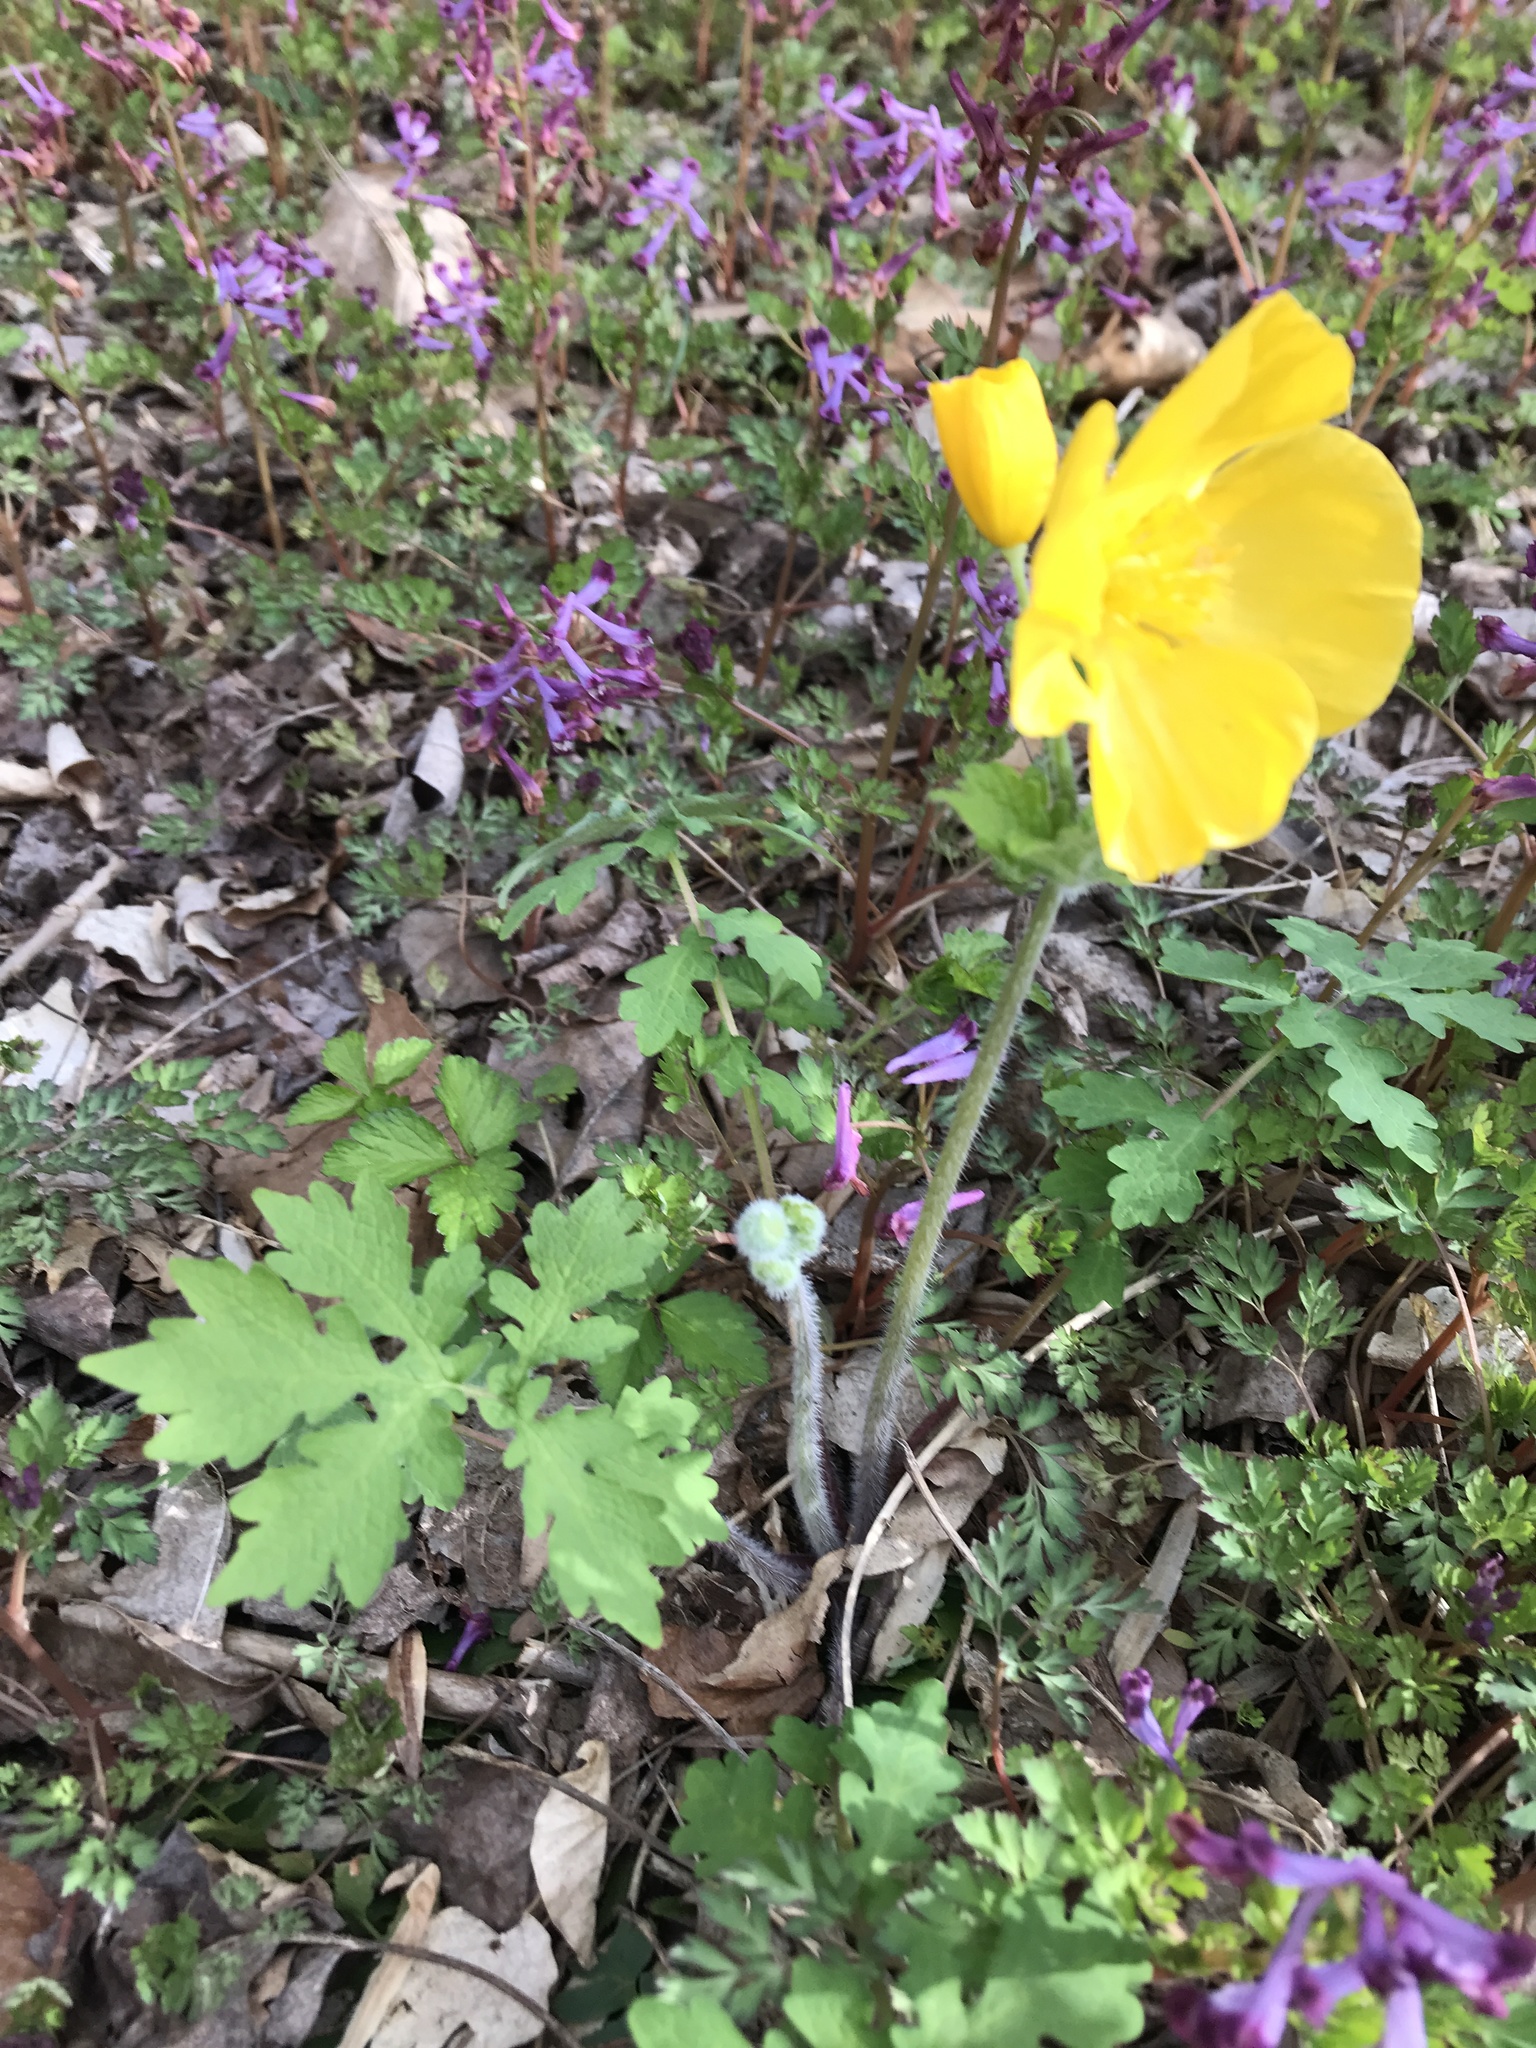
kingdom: Plantae
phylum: Tracheophyta
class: Magnoliopsida
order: Ranunculales
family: Papaveraceae
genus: Stylophorum
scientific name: Stylophorum diphyllum
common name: Celandine poppy
